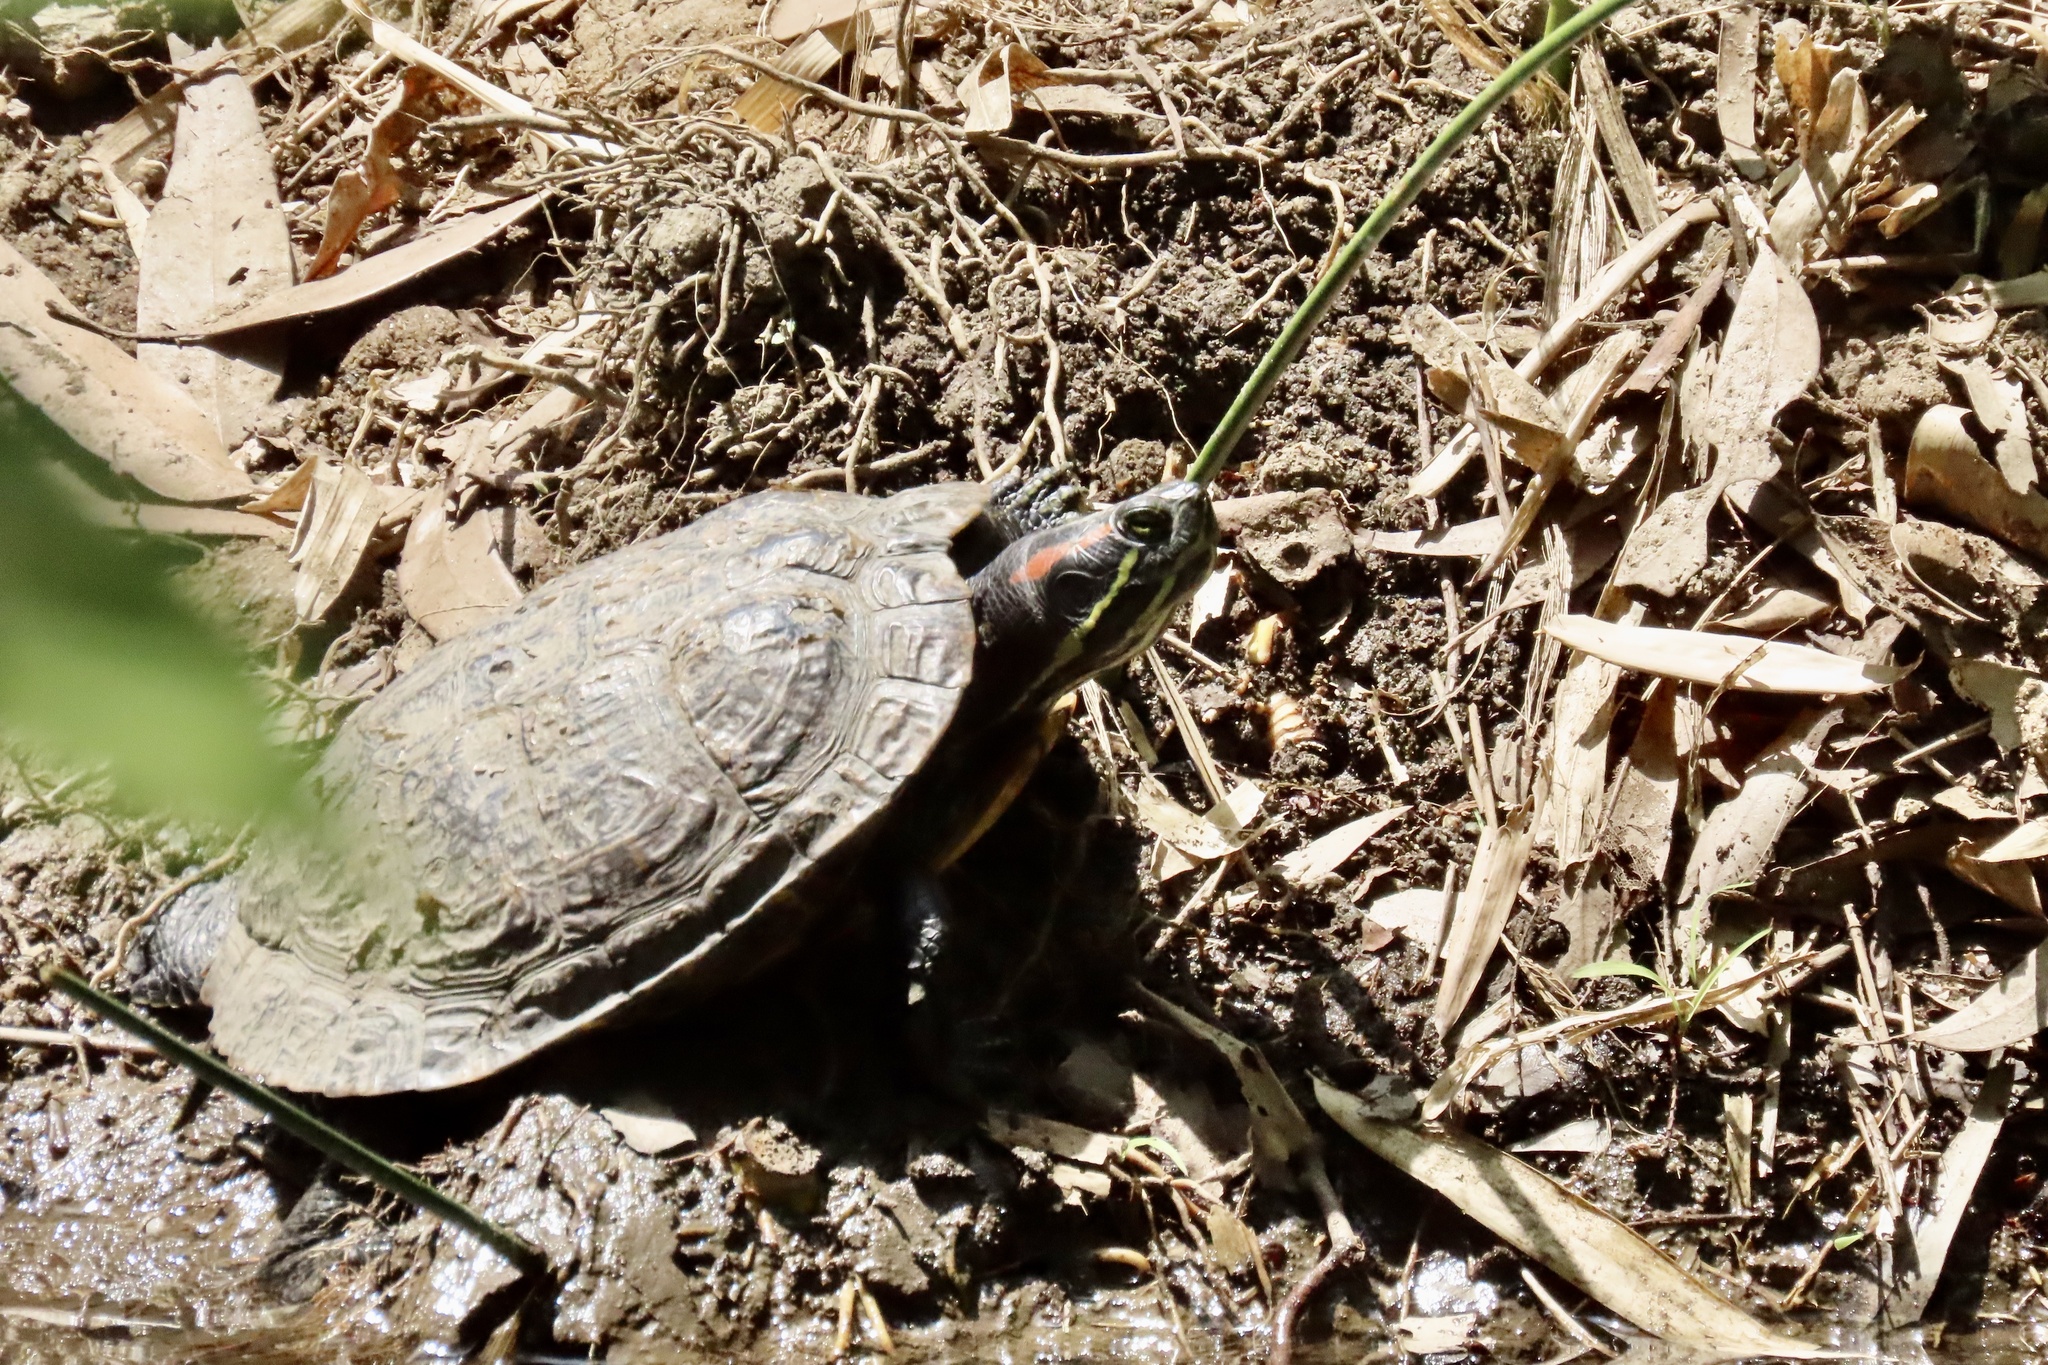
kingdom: Animalia
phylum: Chordata
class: Testudines
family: Emydidae
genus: Trachemys
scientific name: Trachemys scripta
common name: Slider
